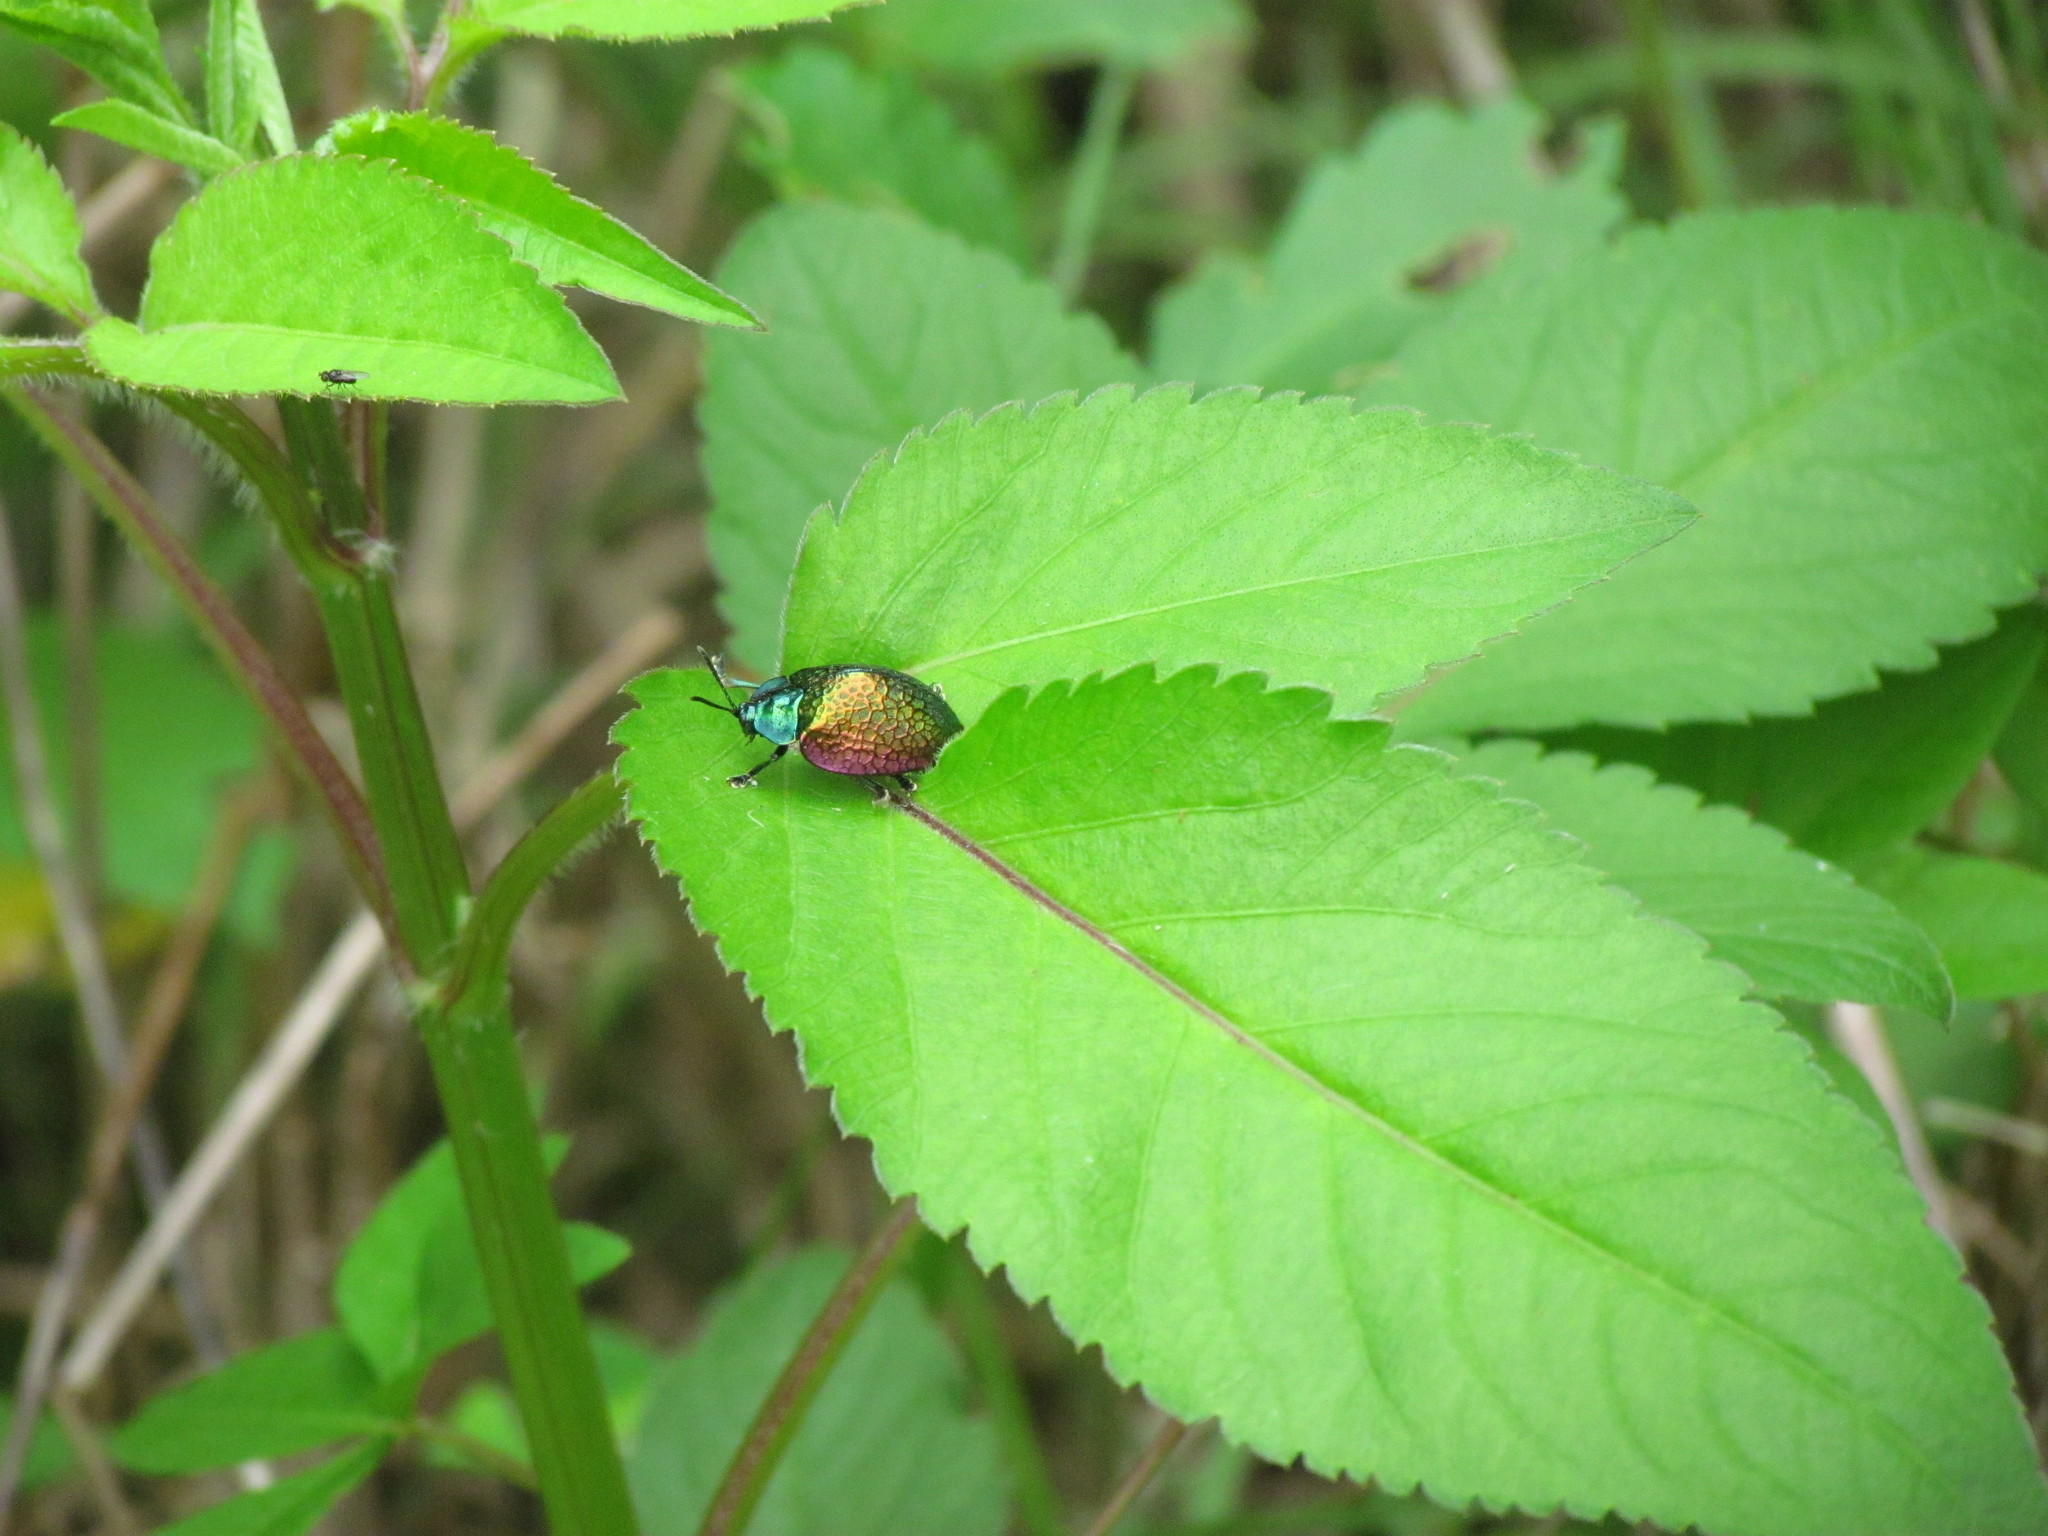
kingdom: Animalia
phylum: Arthropoda
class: Insecta
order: Coleoptera
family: Chrysomelidae
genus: Stolas
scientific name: Stolas festiva
